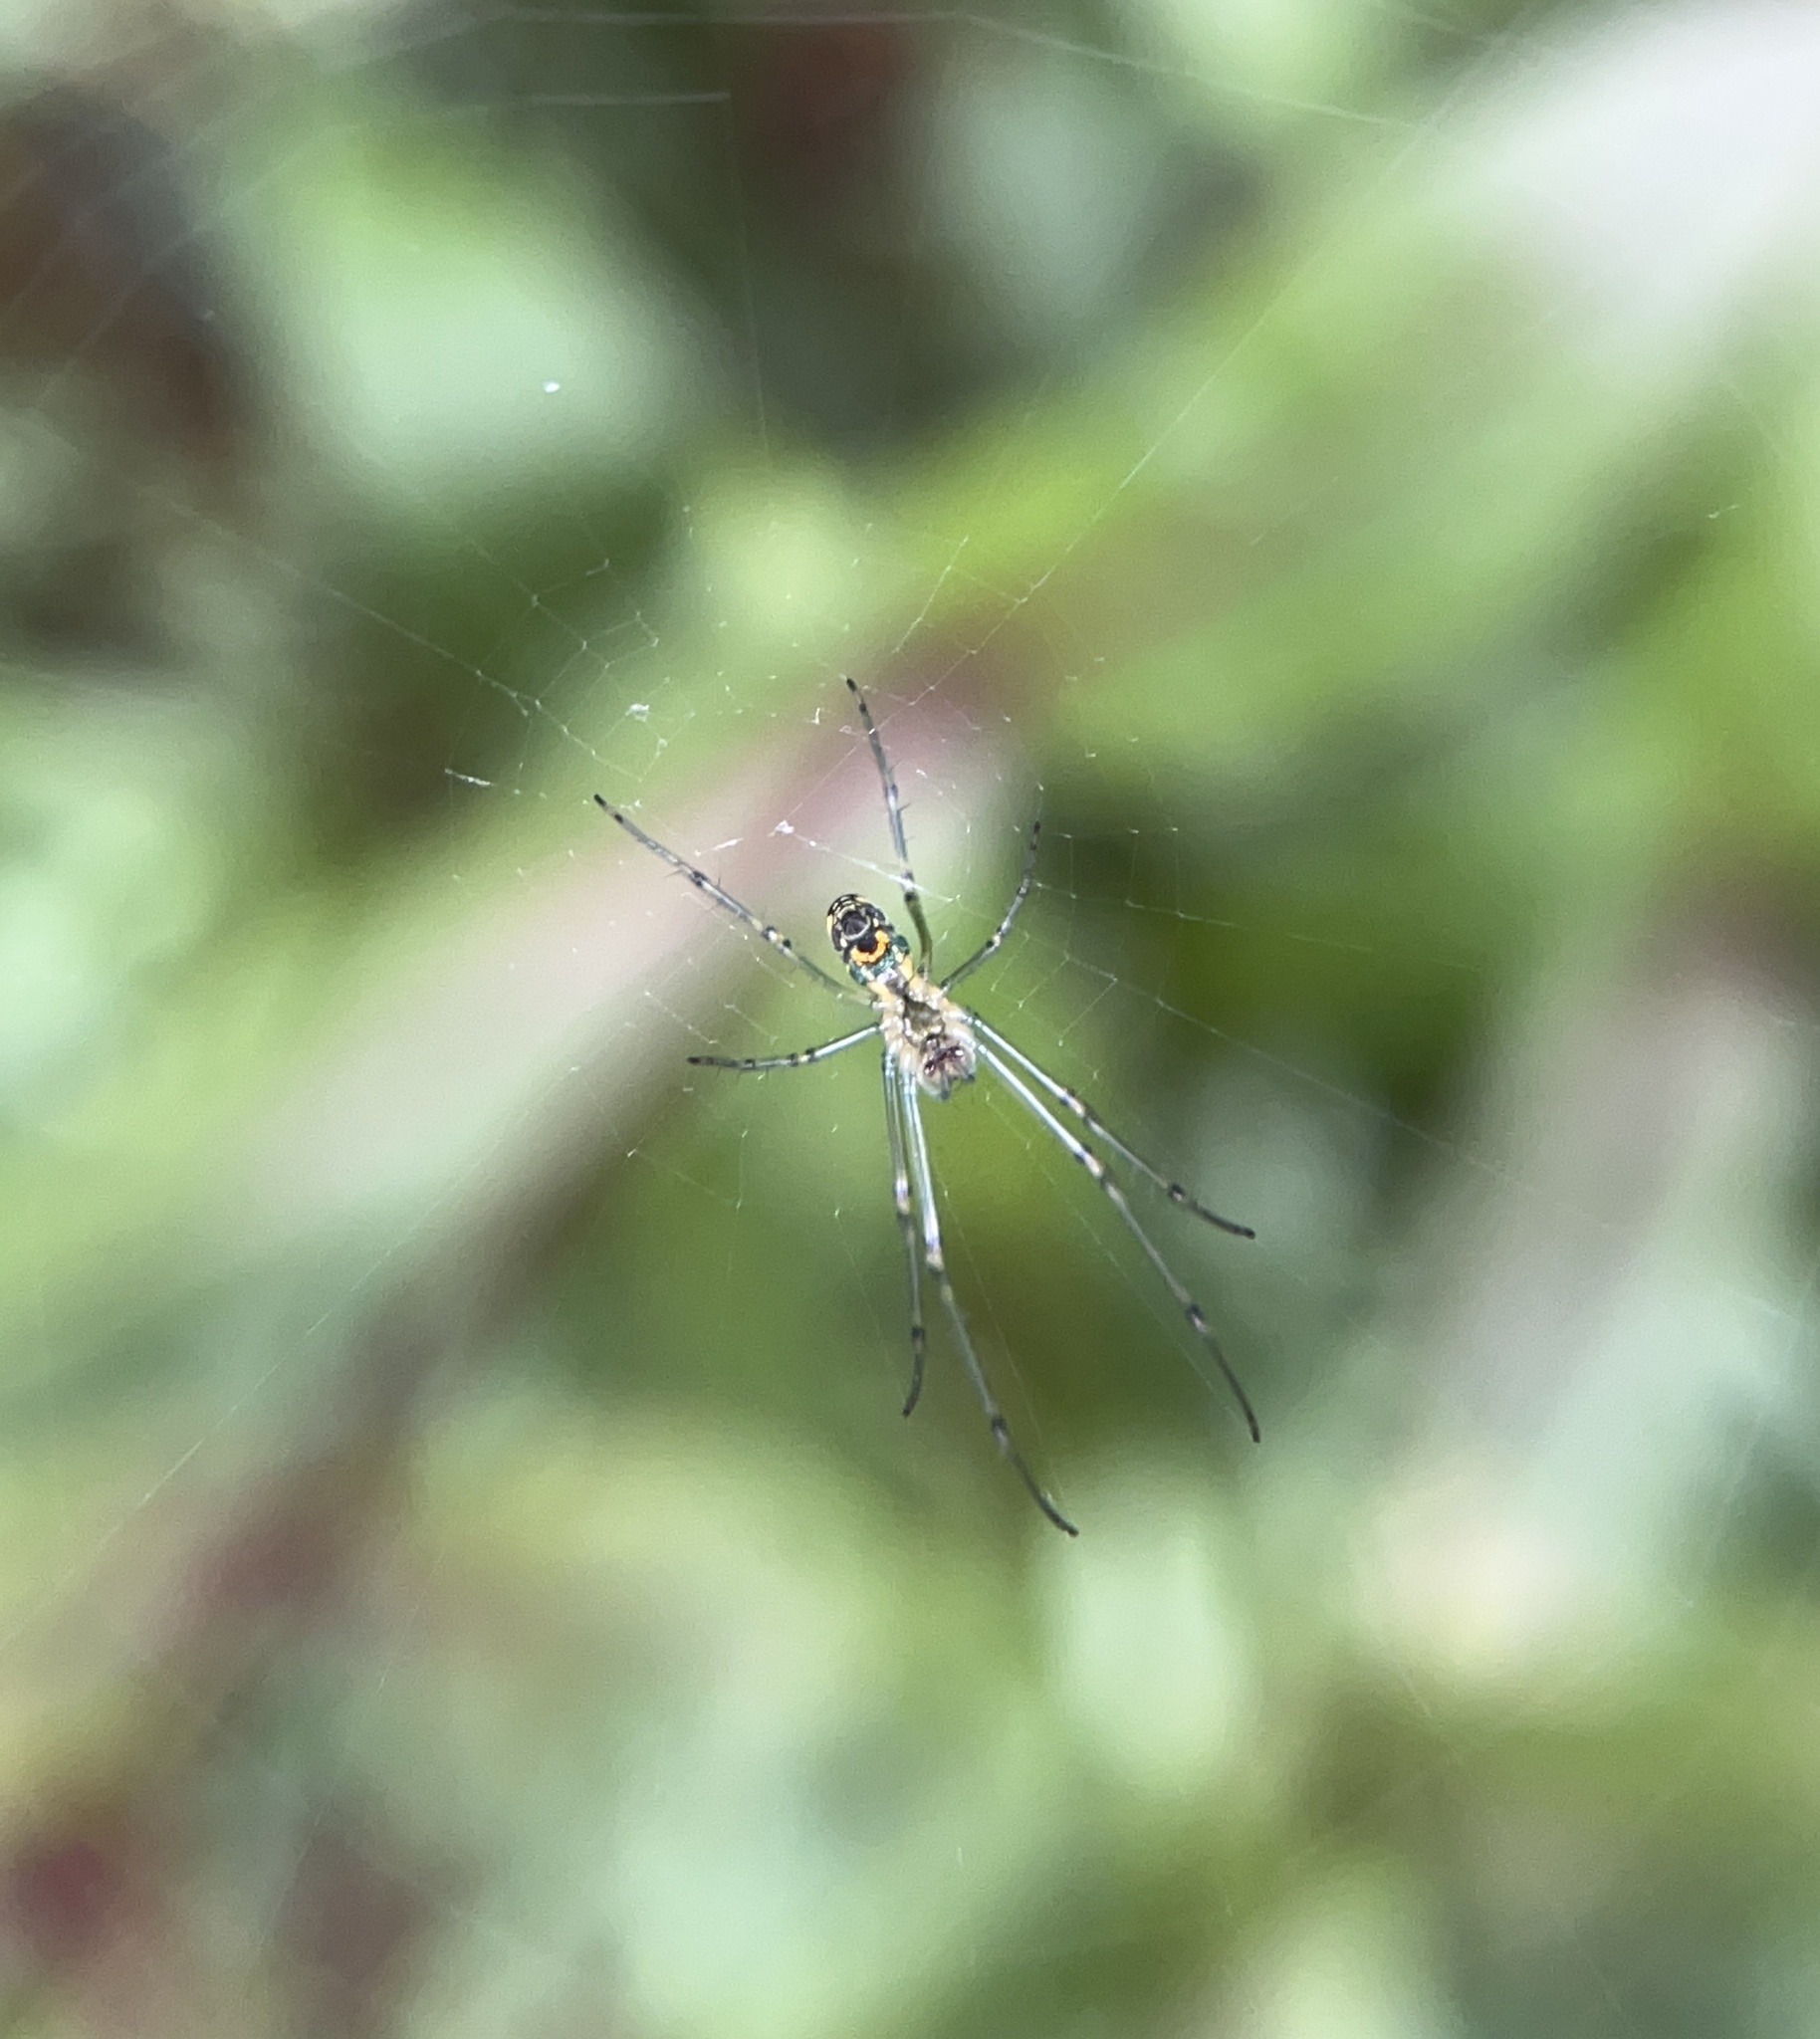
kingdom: Animalia
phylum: Arthropoda
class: Arachnida
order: Araneae
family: Tetragnathidae
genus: Leucauge
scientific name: Leucauge venusta
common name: Longjawed orb weavers
